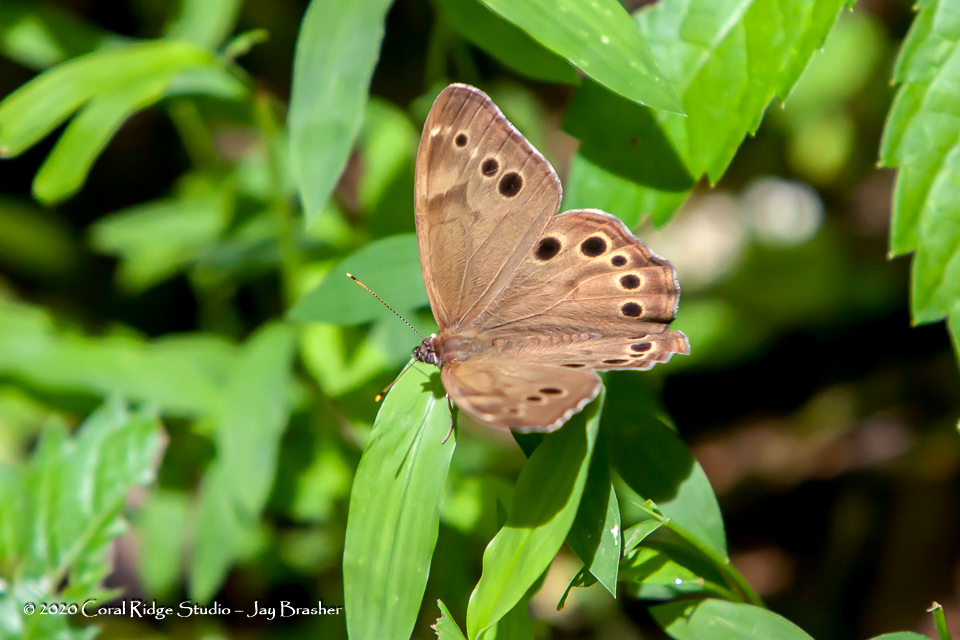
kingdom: Animalia
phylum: Arthropoda
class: Insecta
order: Lepidoptera
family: Nymphalidae
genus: Lethe
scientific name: Lethe anthedon
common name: Northern pearly-eye
